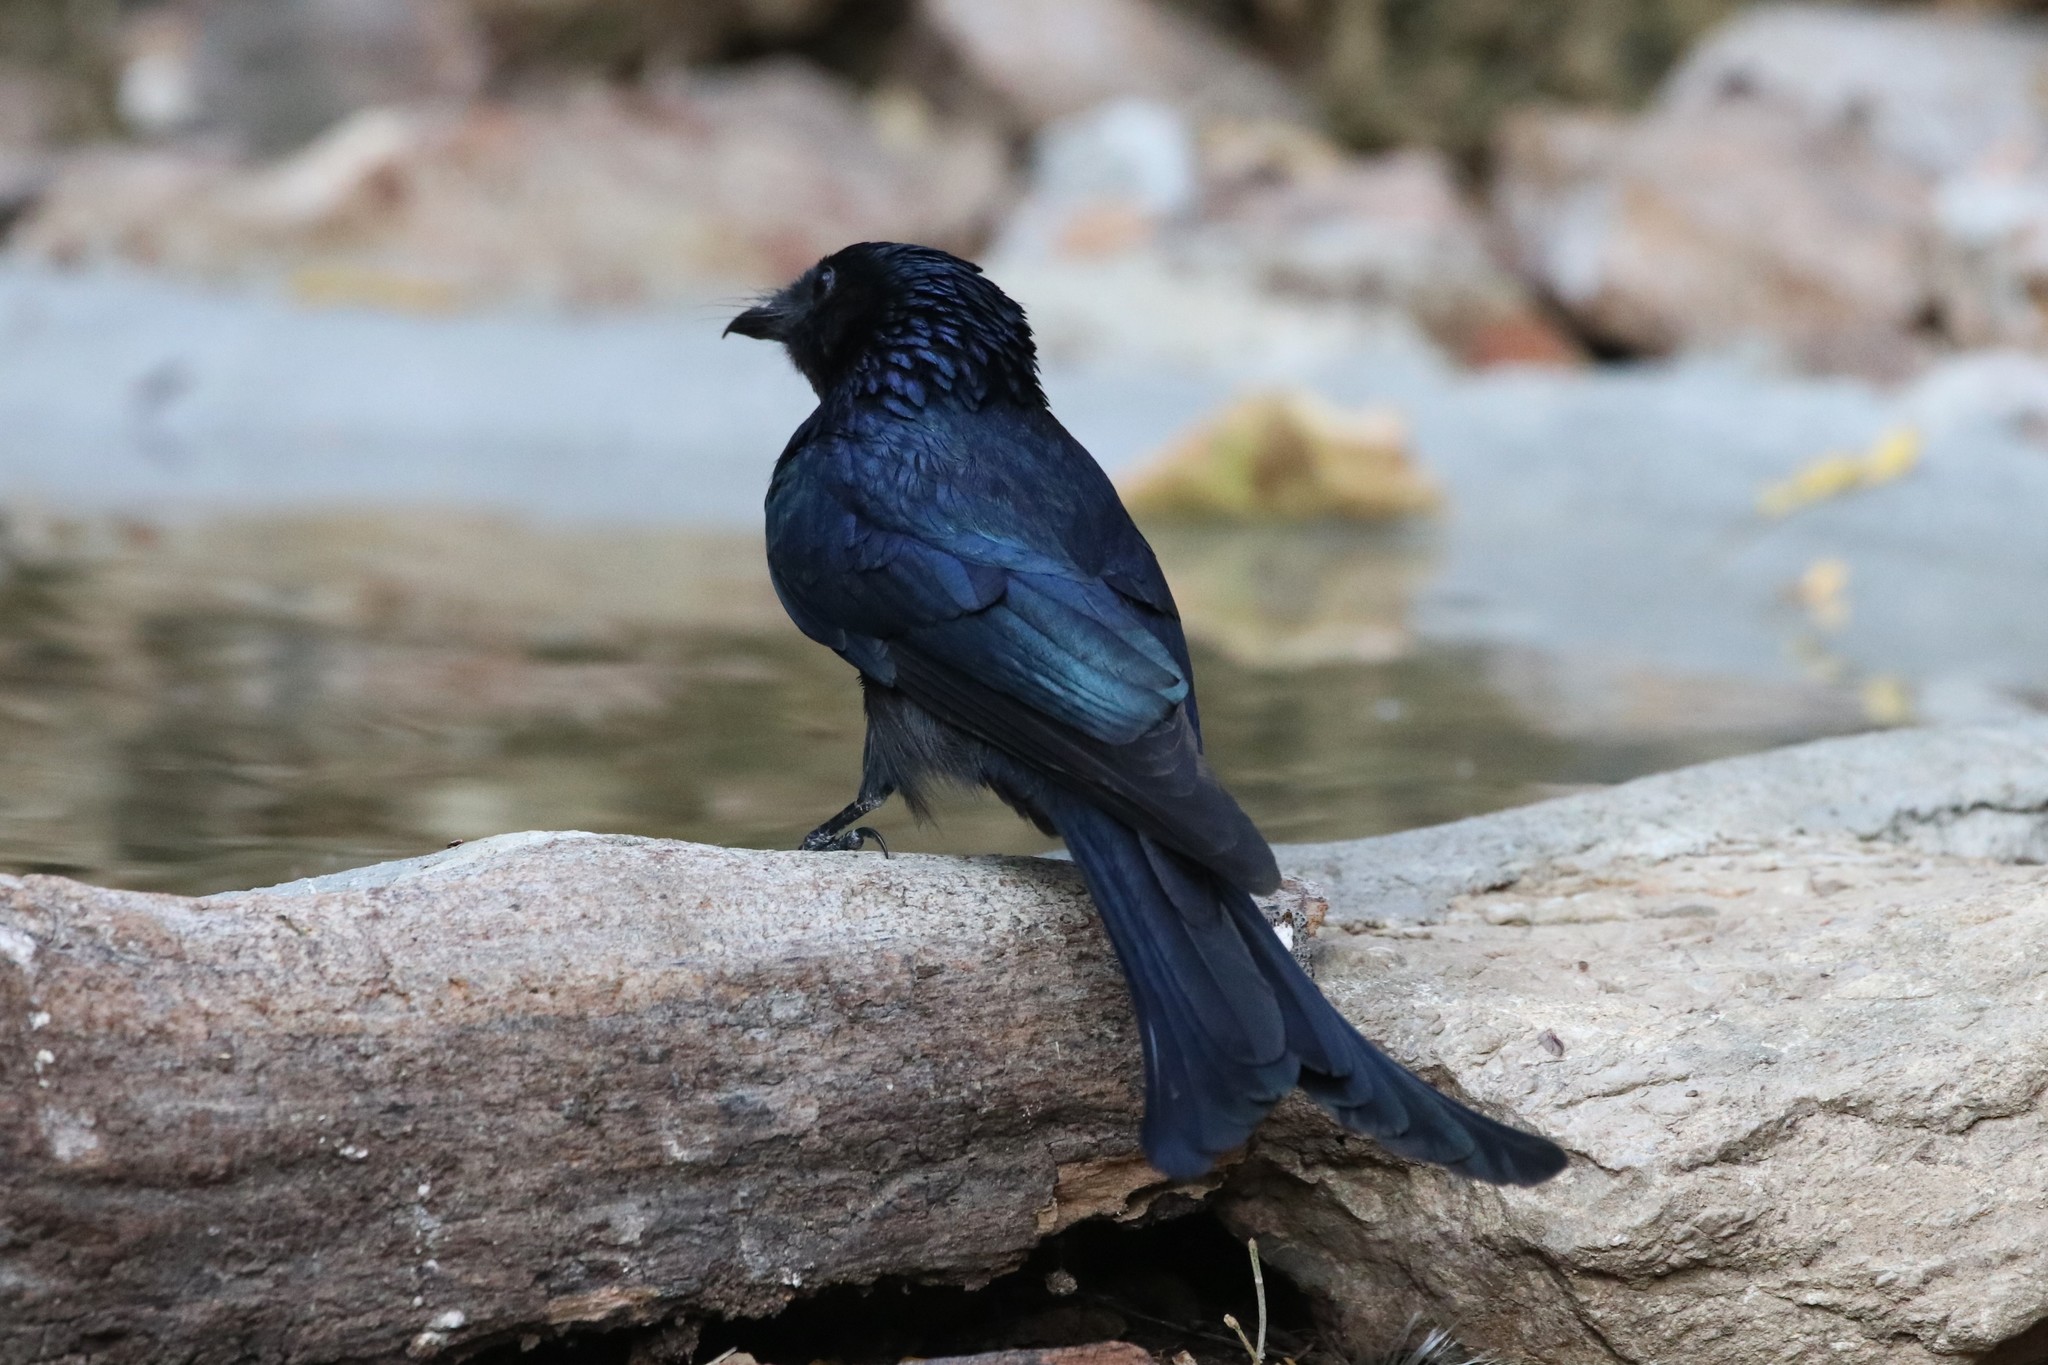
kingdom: Animalia
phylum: Chordata
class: Aves
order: Passeriformes
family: Dicruridae
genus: Dicrurus
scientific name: Dicrurus macrocercus
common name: Black drongo
